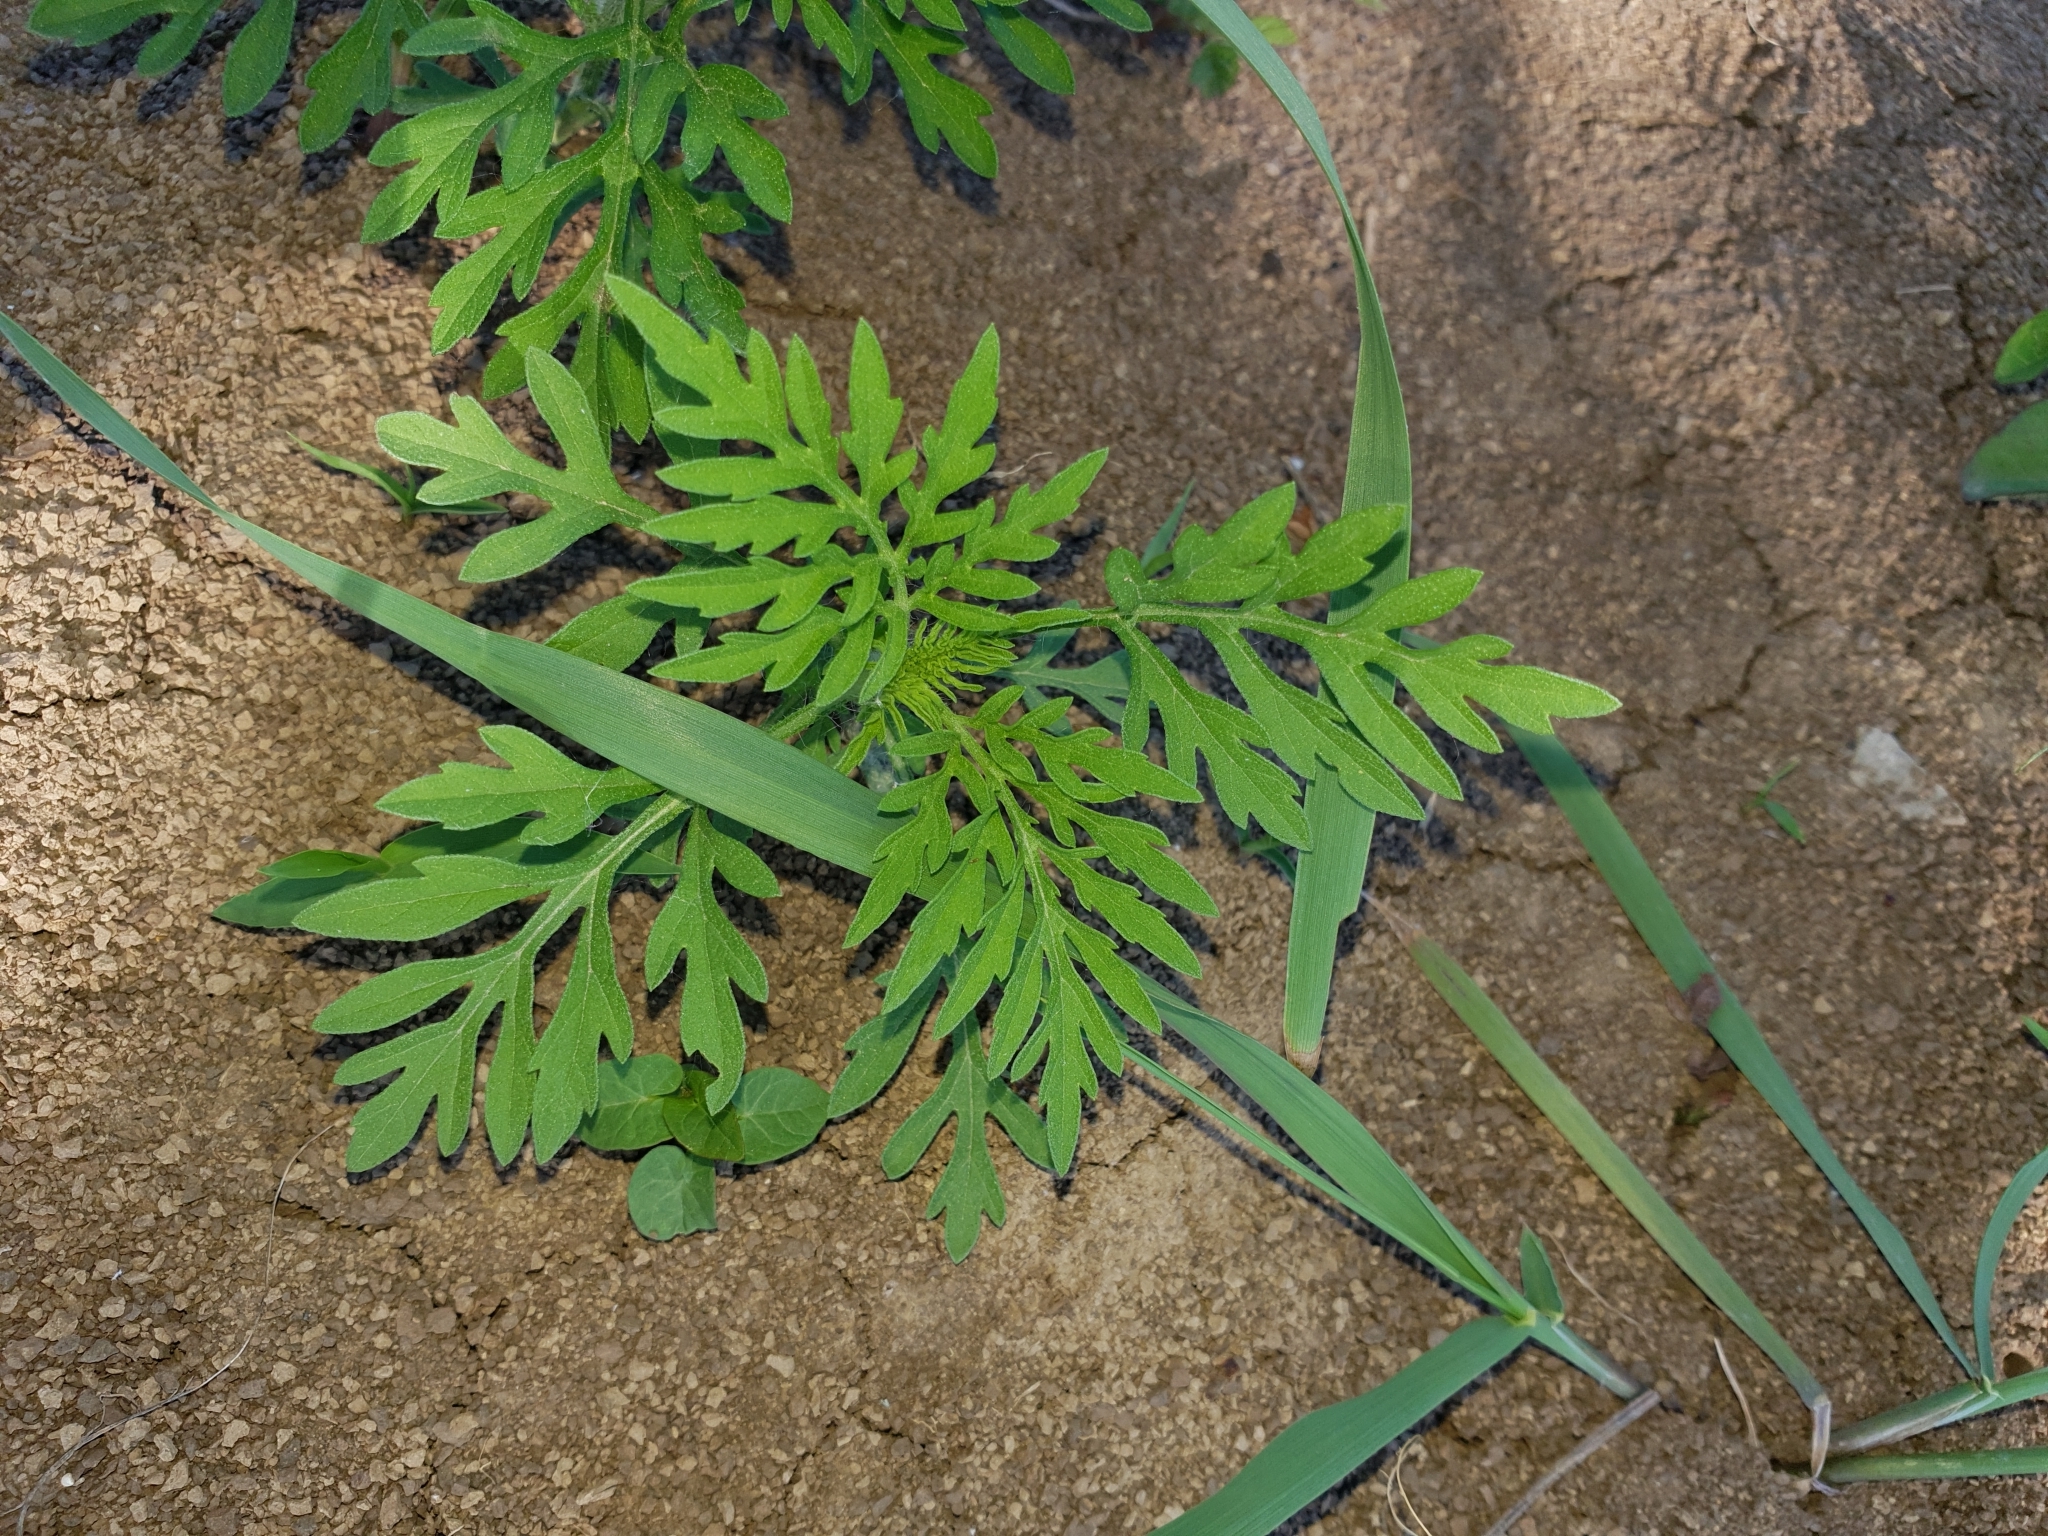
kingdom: Plantae
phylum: Tracheophyta
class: Magnoliopsida
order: Asterales
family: Asteraceae
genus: Ambrosia
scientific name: Ambrosia artemisiifolia
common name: Annual ragweed
